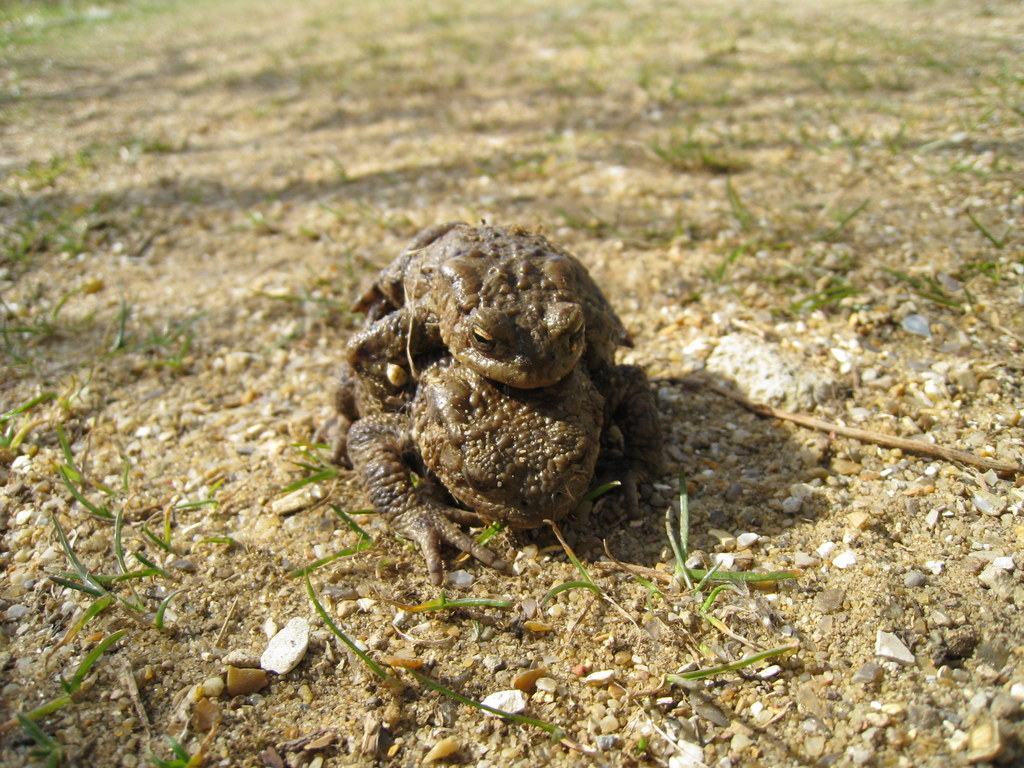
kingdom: Animalia
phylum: Chordata
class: Amphibia
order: Anura
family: Bufonidae
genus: Bufo
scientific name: Bufo bufo
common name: Common toad
